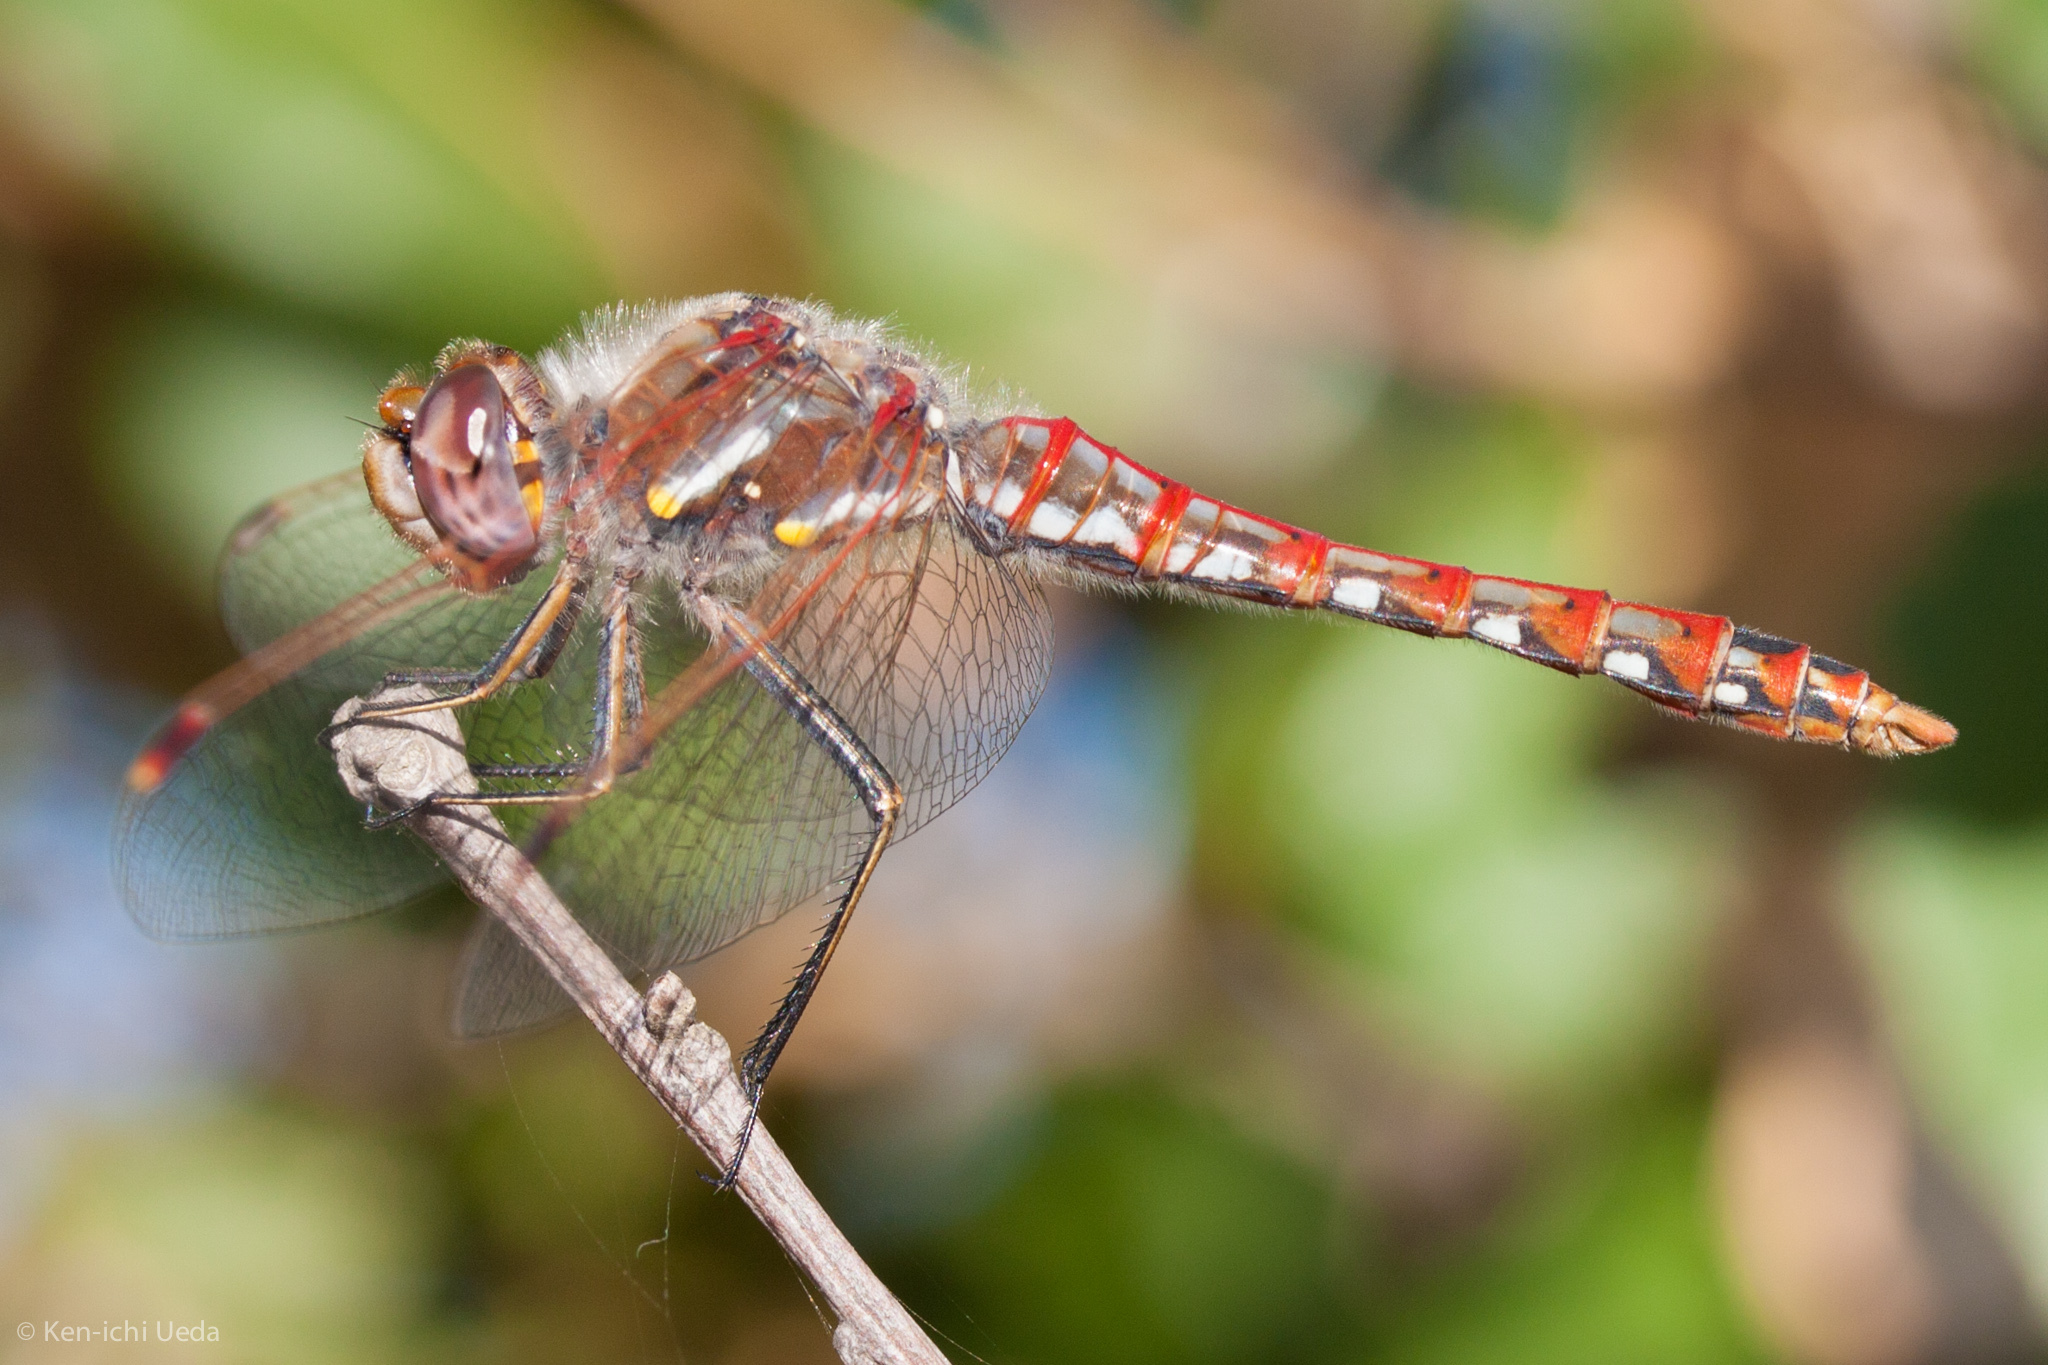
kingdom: Animalia
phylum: Arthropoda
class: Insecta
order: Odonata
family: Libellulidae
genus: Sympetrum
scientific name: Sympetrum corruptum
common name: Variegated meadowhawk
